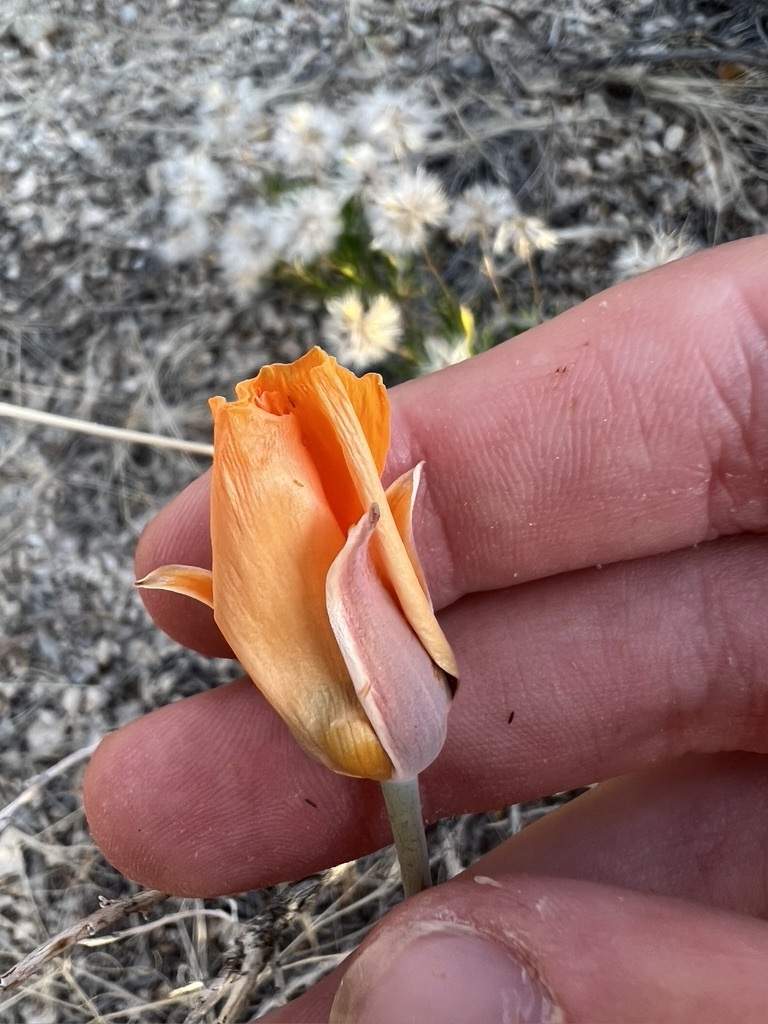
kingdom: Plantae
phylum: Tracheophyta
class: Liliopsida
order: Liliales
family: Liliaceae
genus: Calochortus
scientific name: Calochortus kennedyi
